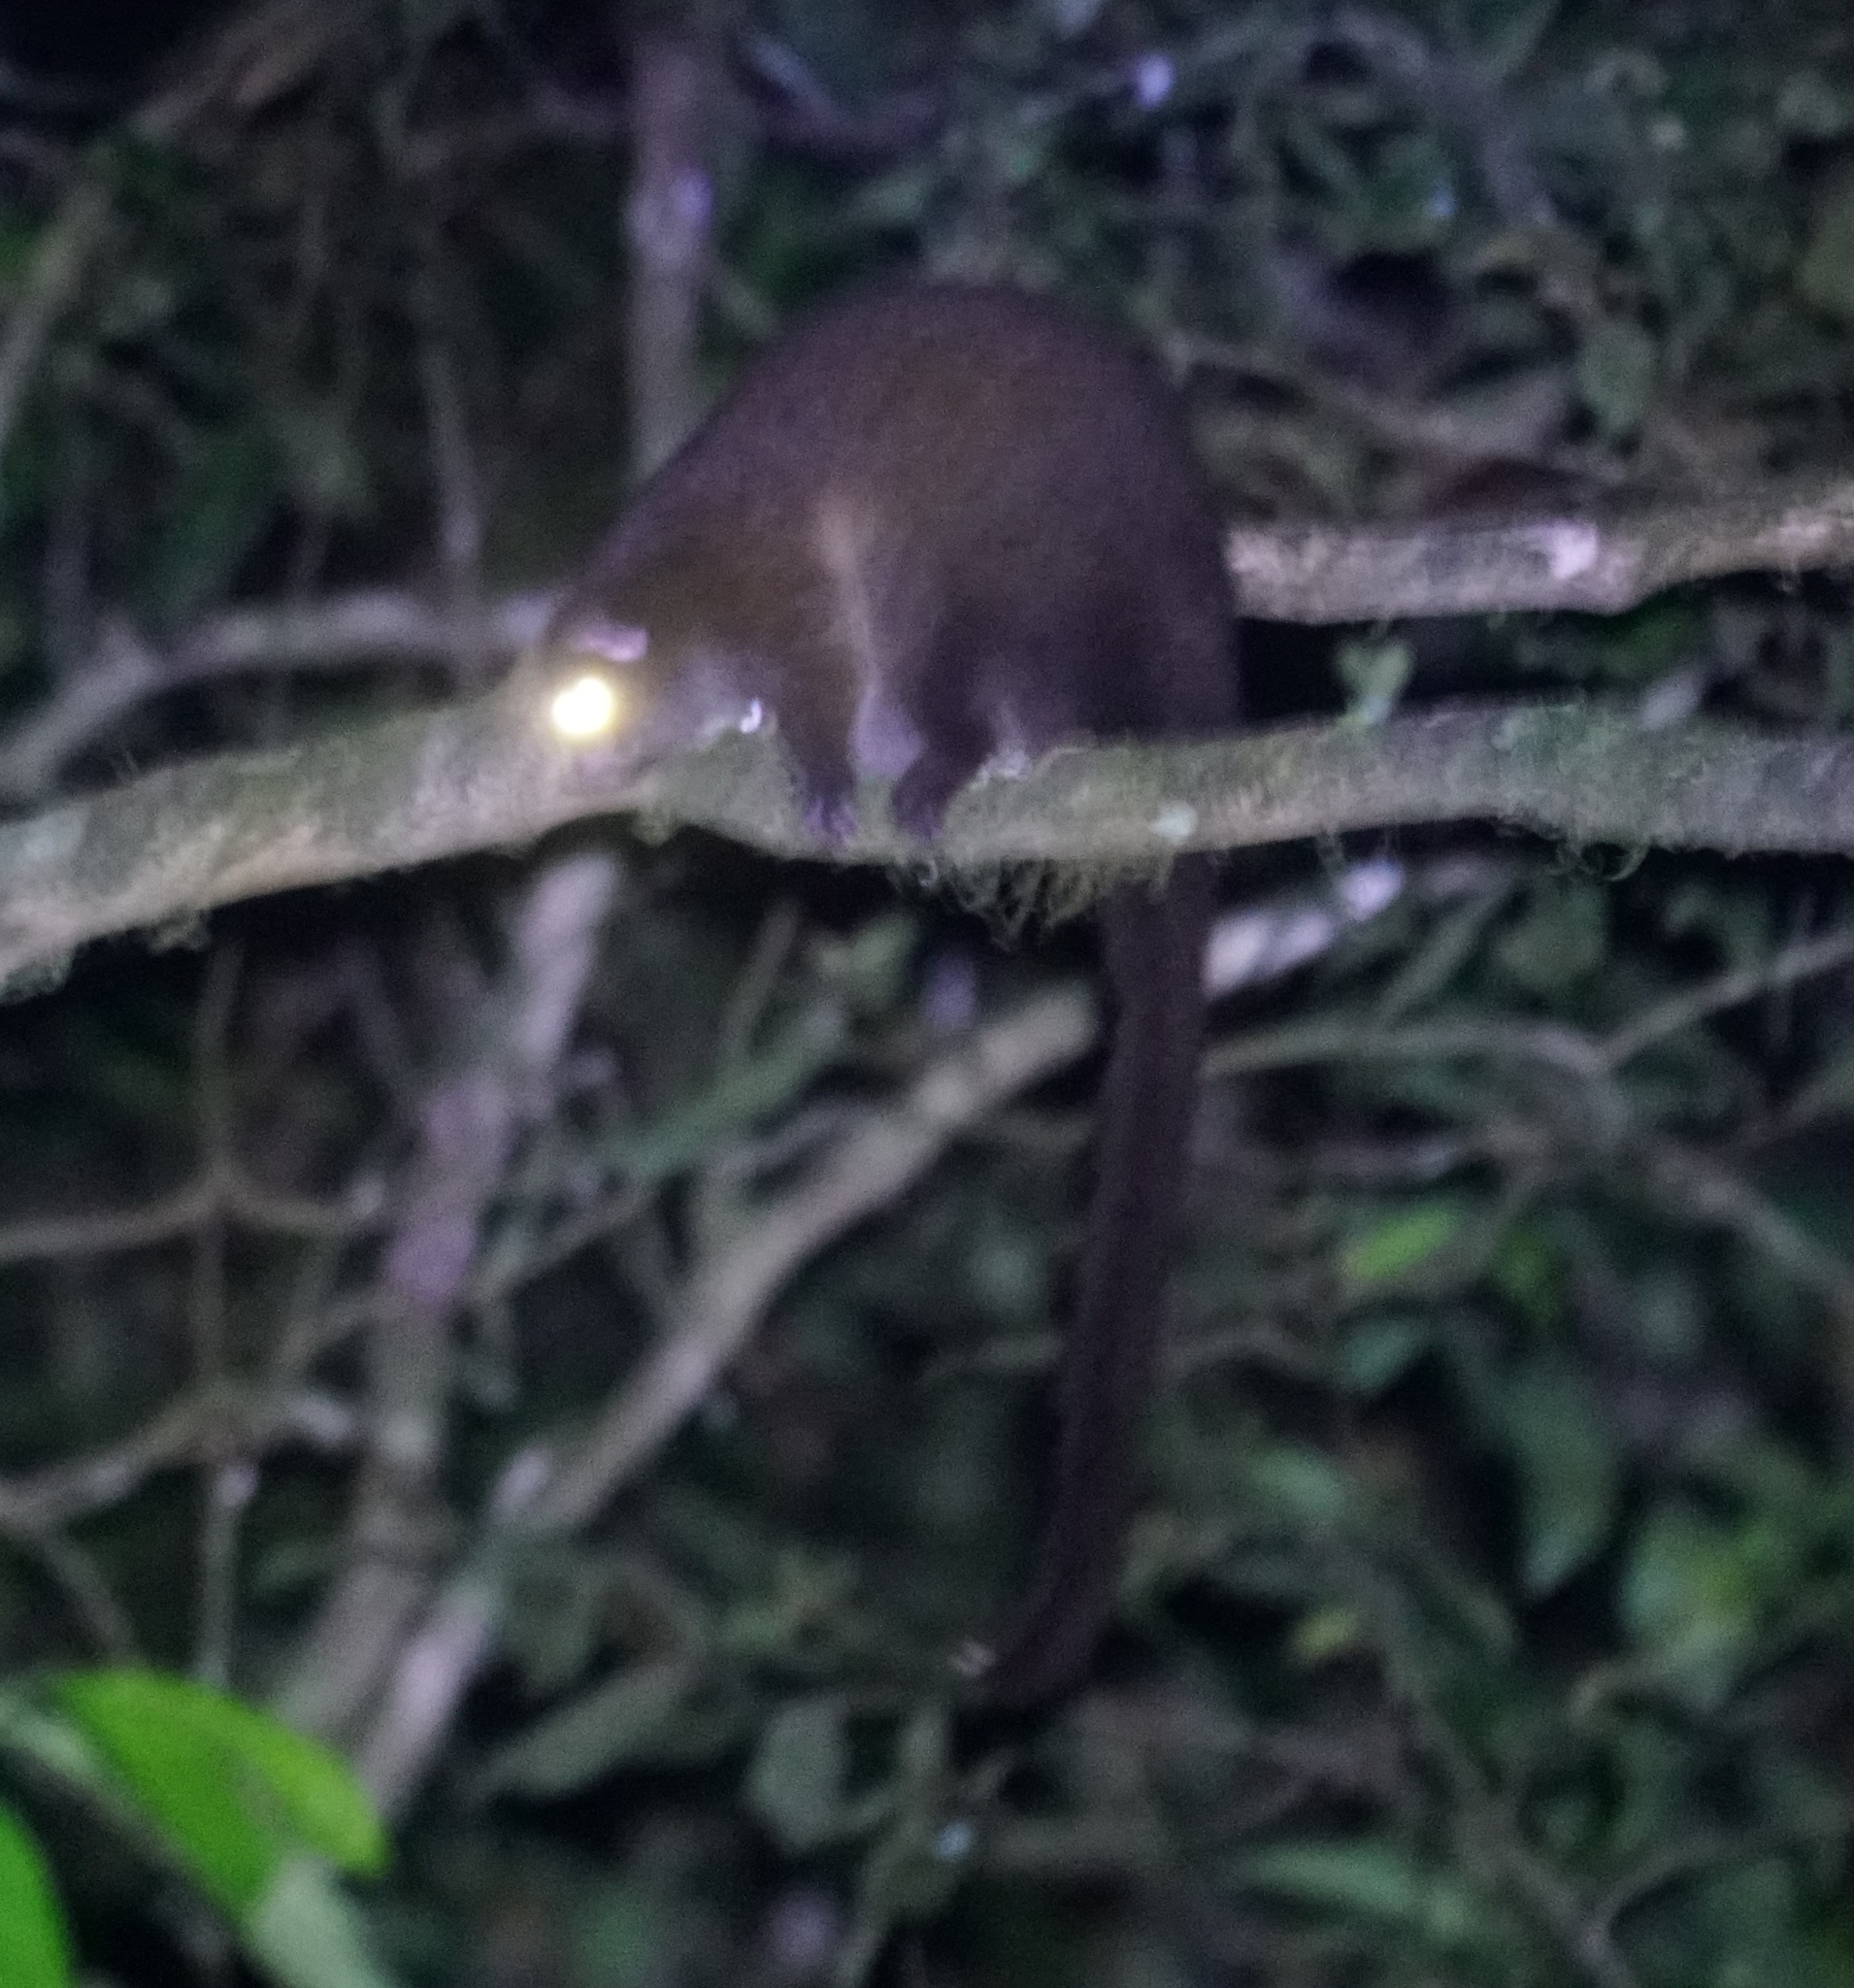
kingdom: Animalia
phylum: Chordata
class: Mammalia
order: Diprotodontia
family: Pseudocheiridae
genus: Hemibelideus
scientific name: Hemibelideus lemuroides
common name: Lemur-like ringtail
